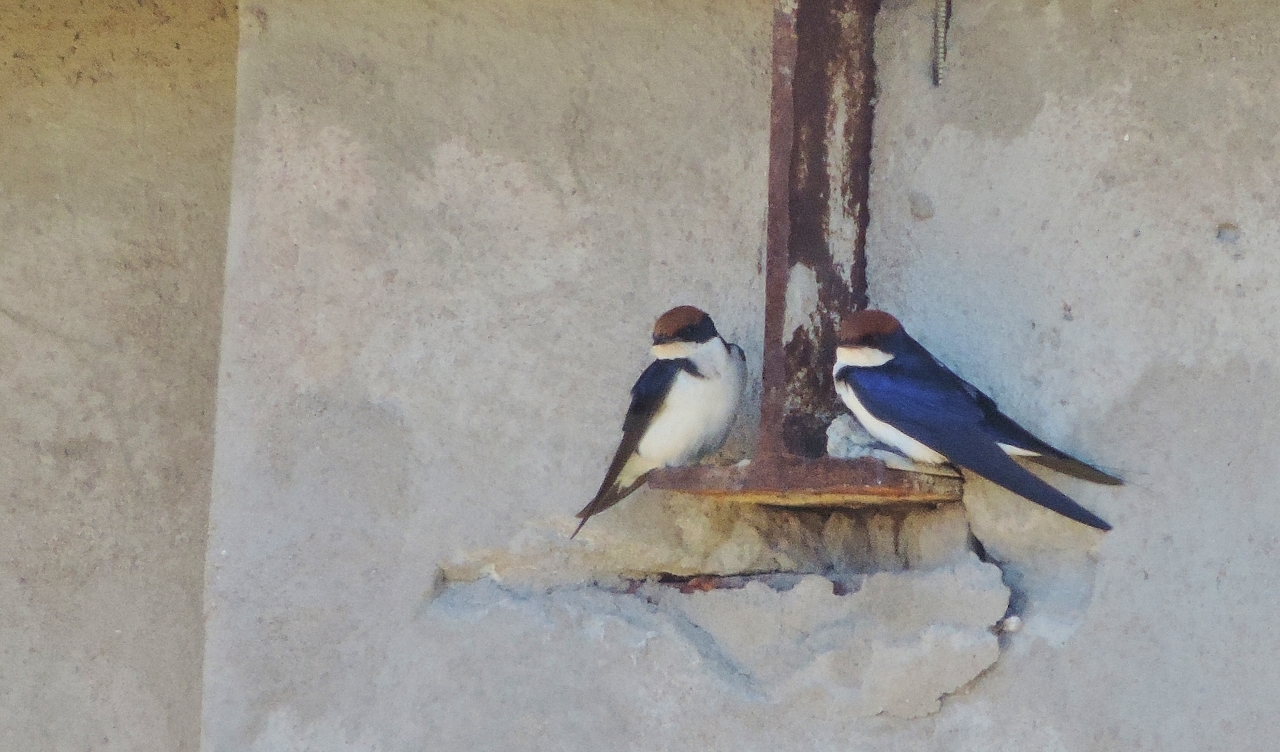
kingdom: Animalia
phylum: Chordata
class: Aves
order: Passeriformes
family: Hirundinidae
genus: Hirundo
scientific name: Hirundo smithii
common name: Wire-tailed swallow
